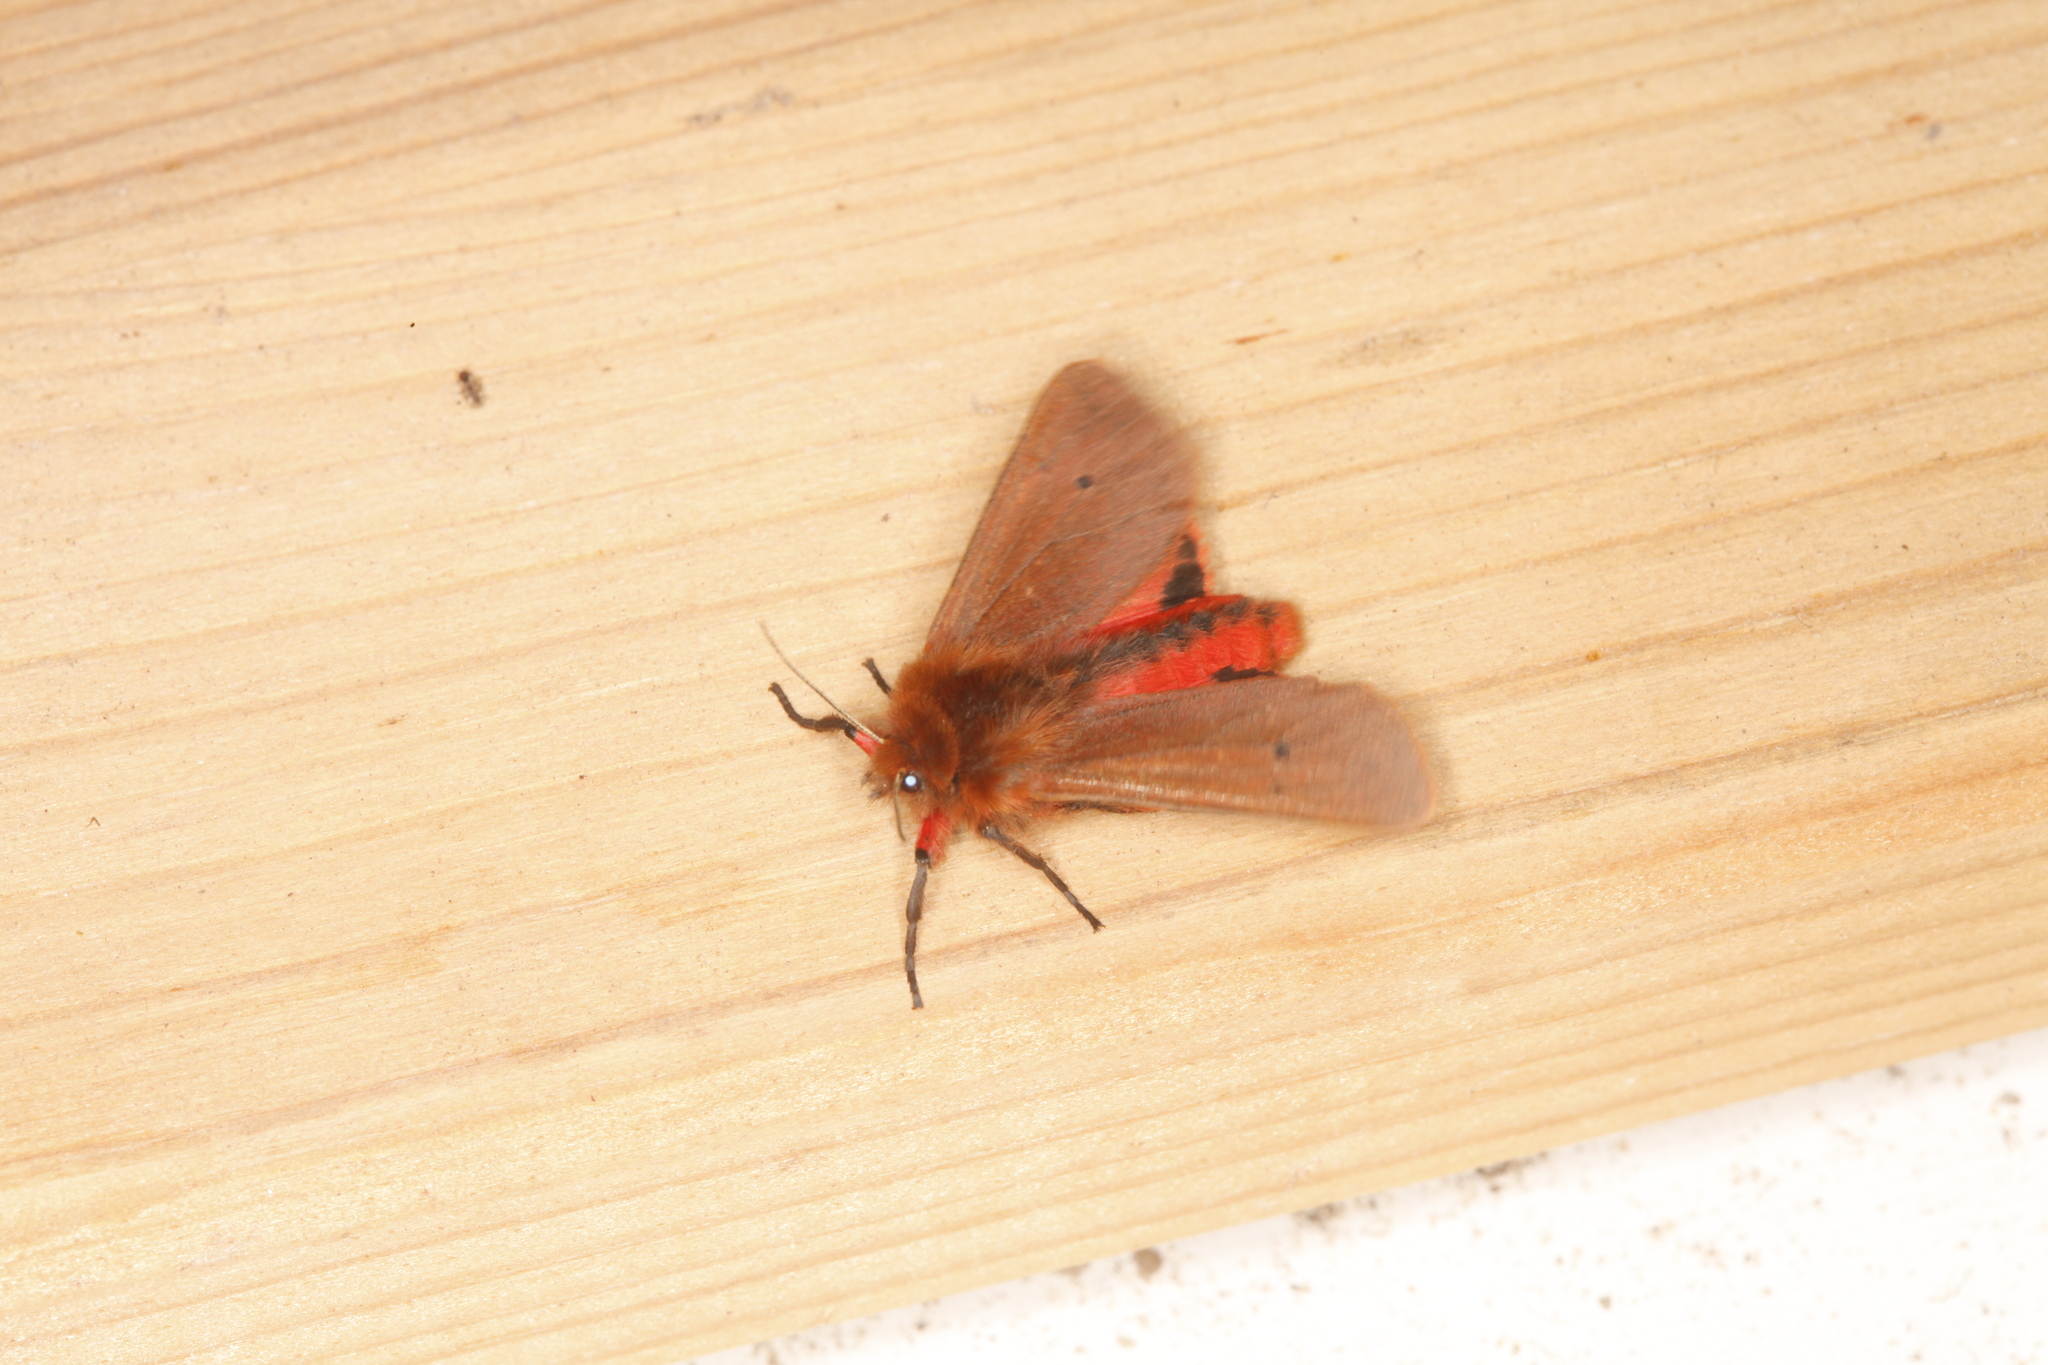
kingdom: Animalia
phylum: Arthropoda
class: Insecta
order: Lepidoptera
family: Erebidae
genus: Phragmatobia
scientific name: Phragmatobia fuliginosa
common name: Ruby tiger
